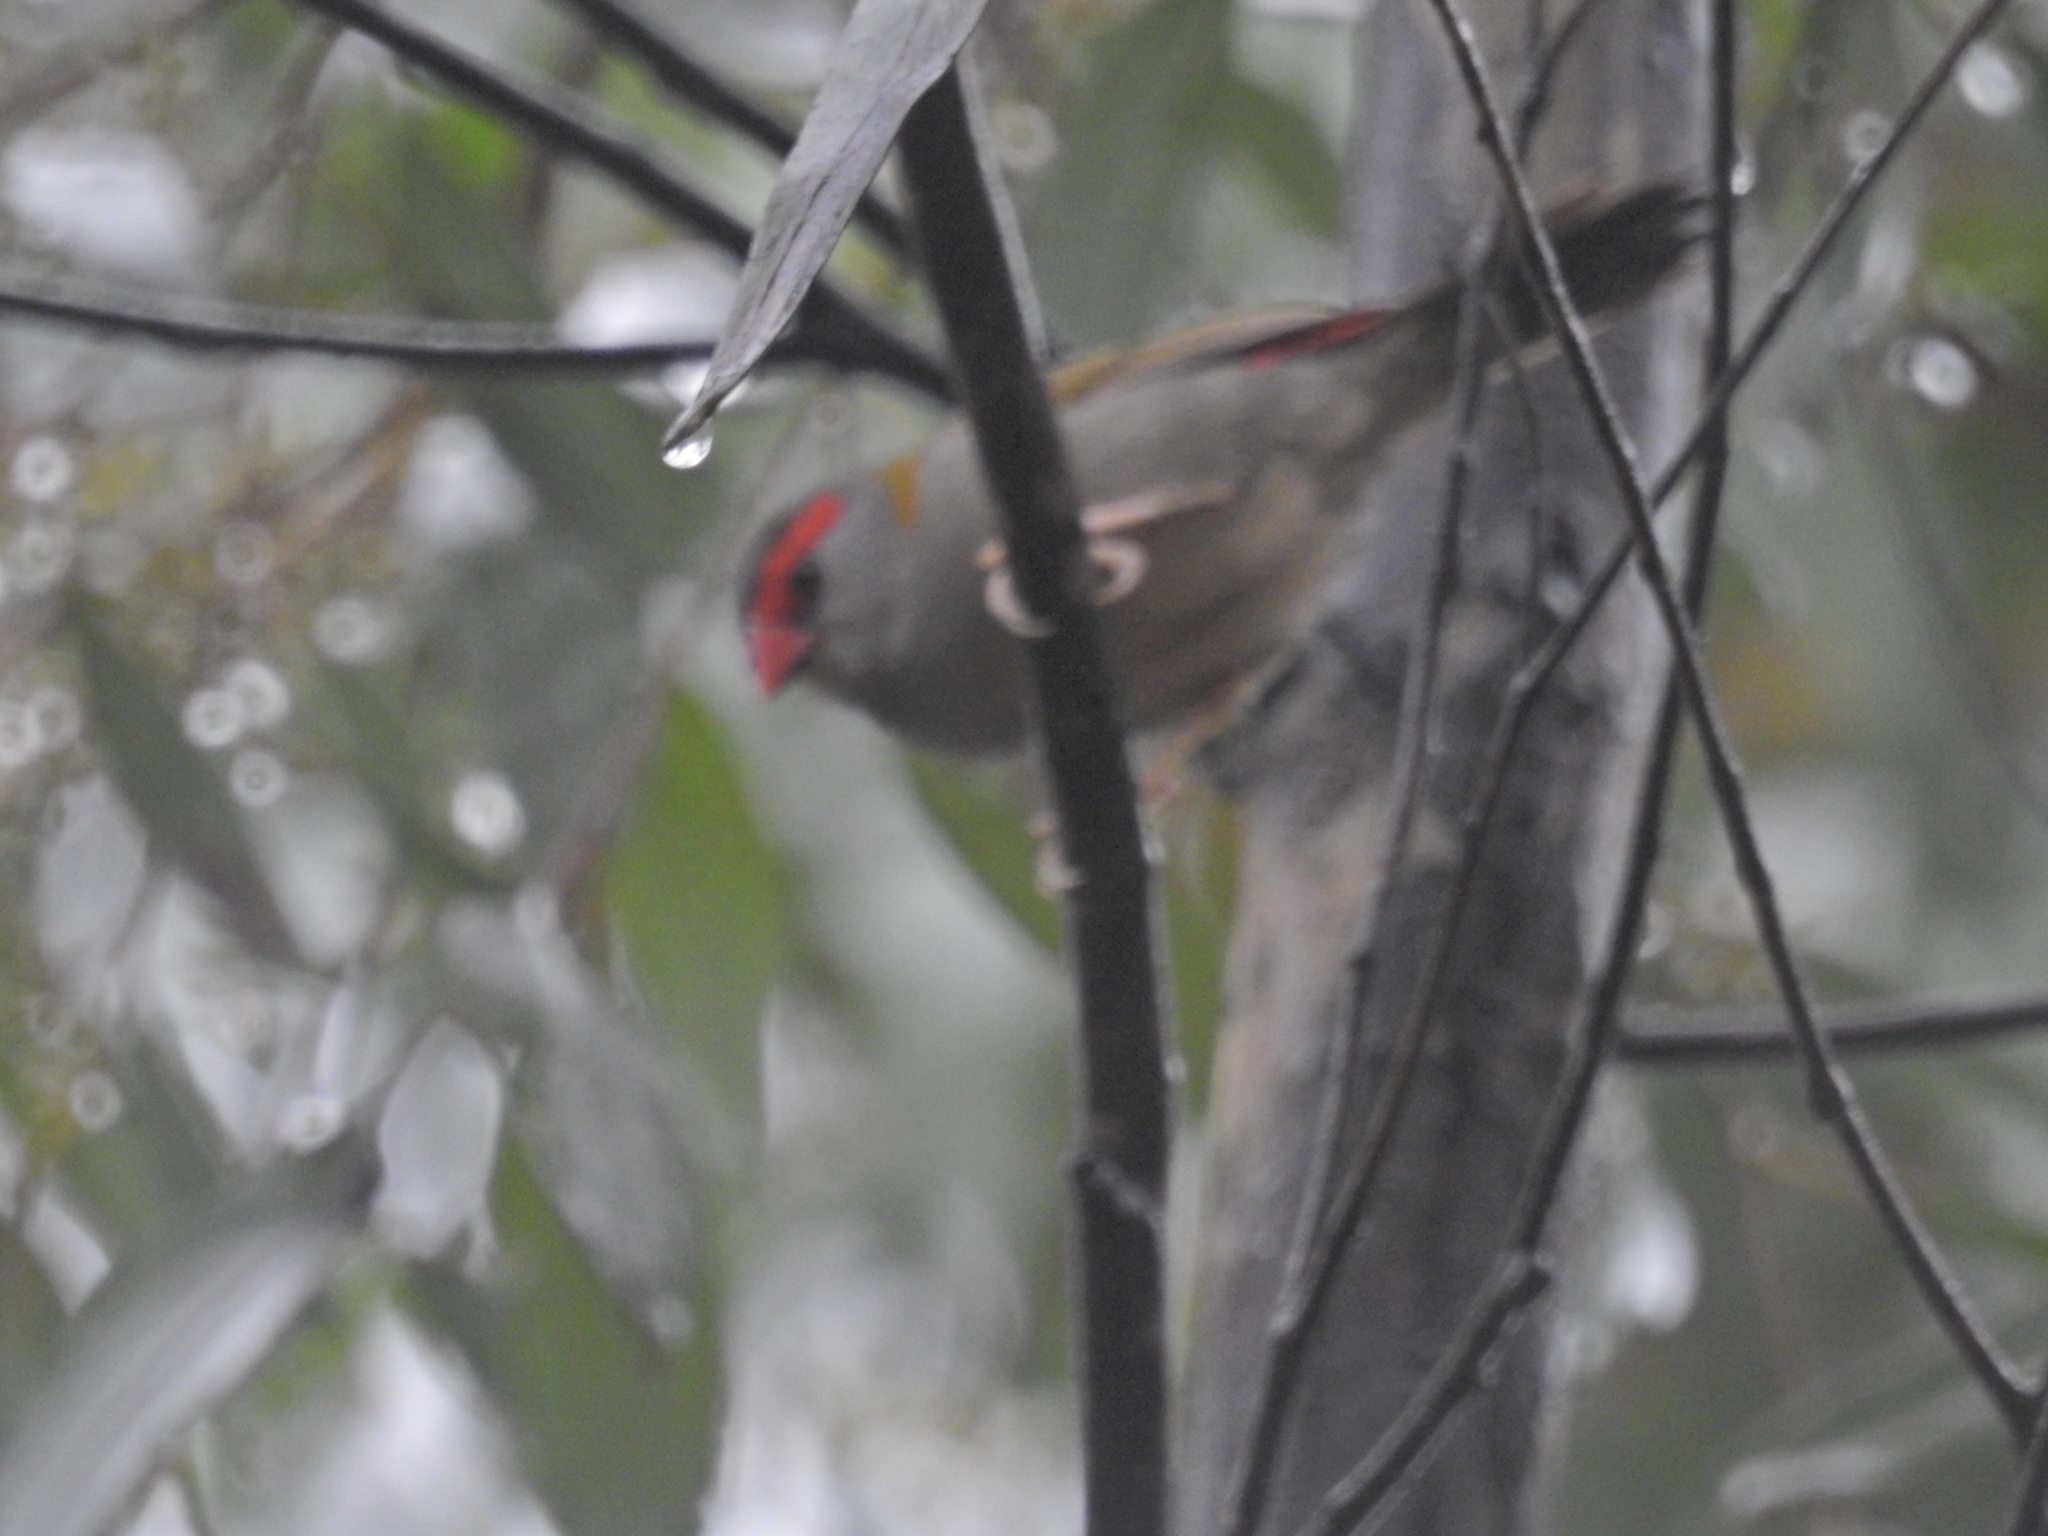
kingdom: Animalia
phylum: Chordata
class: Aves
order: Passeriformes
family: Estrildidae
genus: Neochmia
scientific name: Neochmia temporalis
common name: Red-browed finch
